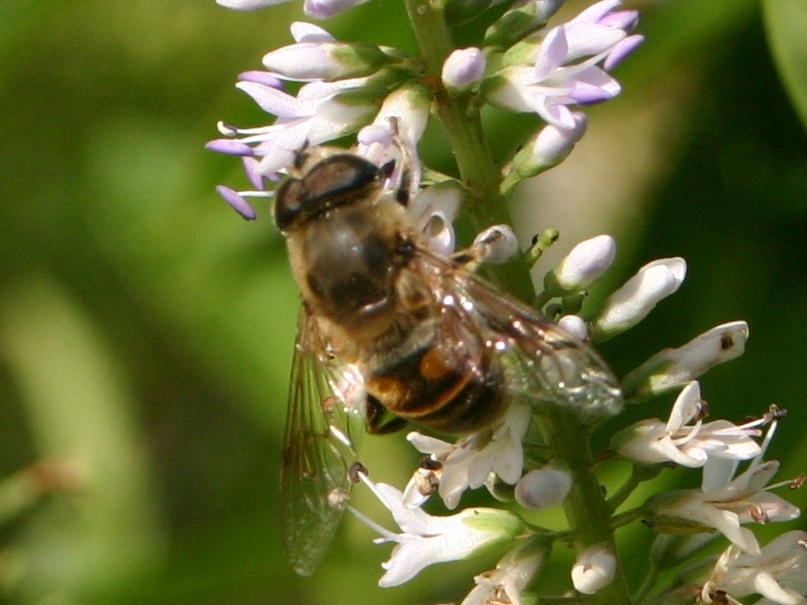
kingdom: Animalia
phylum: Arthropoda
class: Insecta
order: Diptera
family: Syrphidae
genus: Eristalis
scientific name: Eristalis tenax
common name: Drone fly
